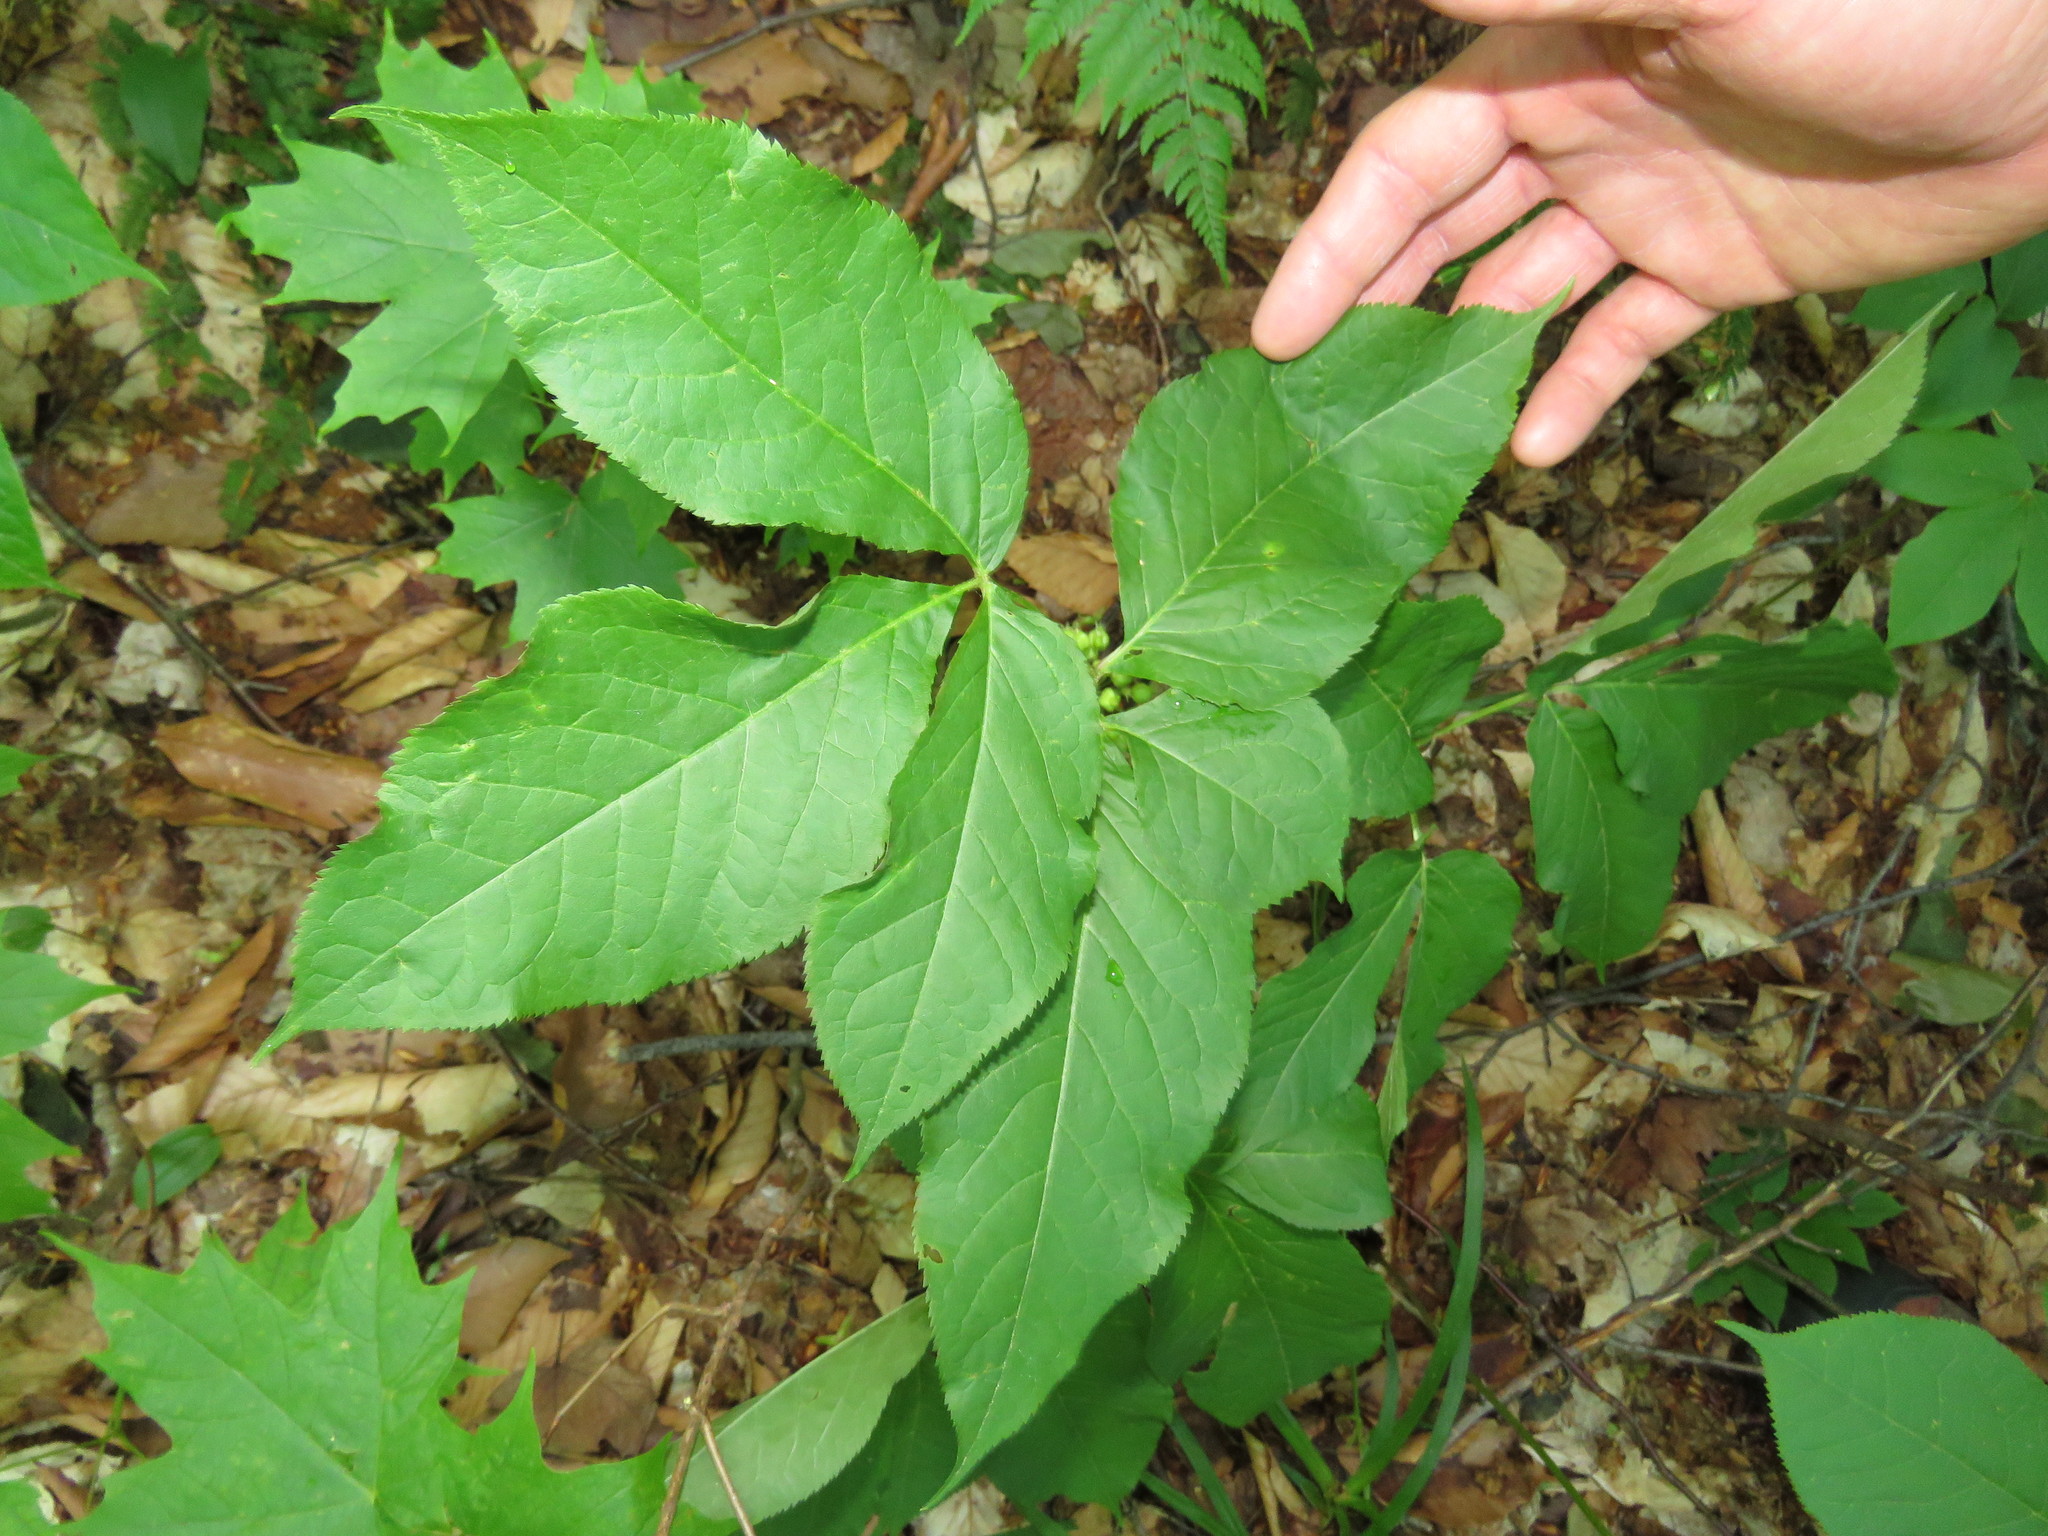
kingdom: Plantae
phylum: Tracheophyta
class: Magnoliopsida
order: Apiales
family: Araliaceae
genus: Aralia
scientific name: Aralia nudicaulis
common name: Wild sarsaparilla
